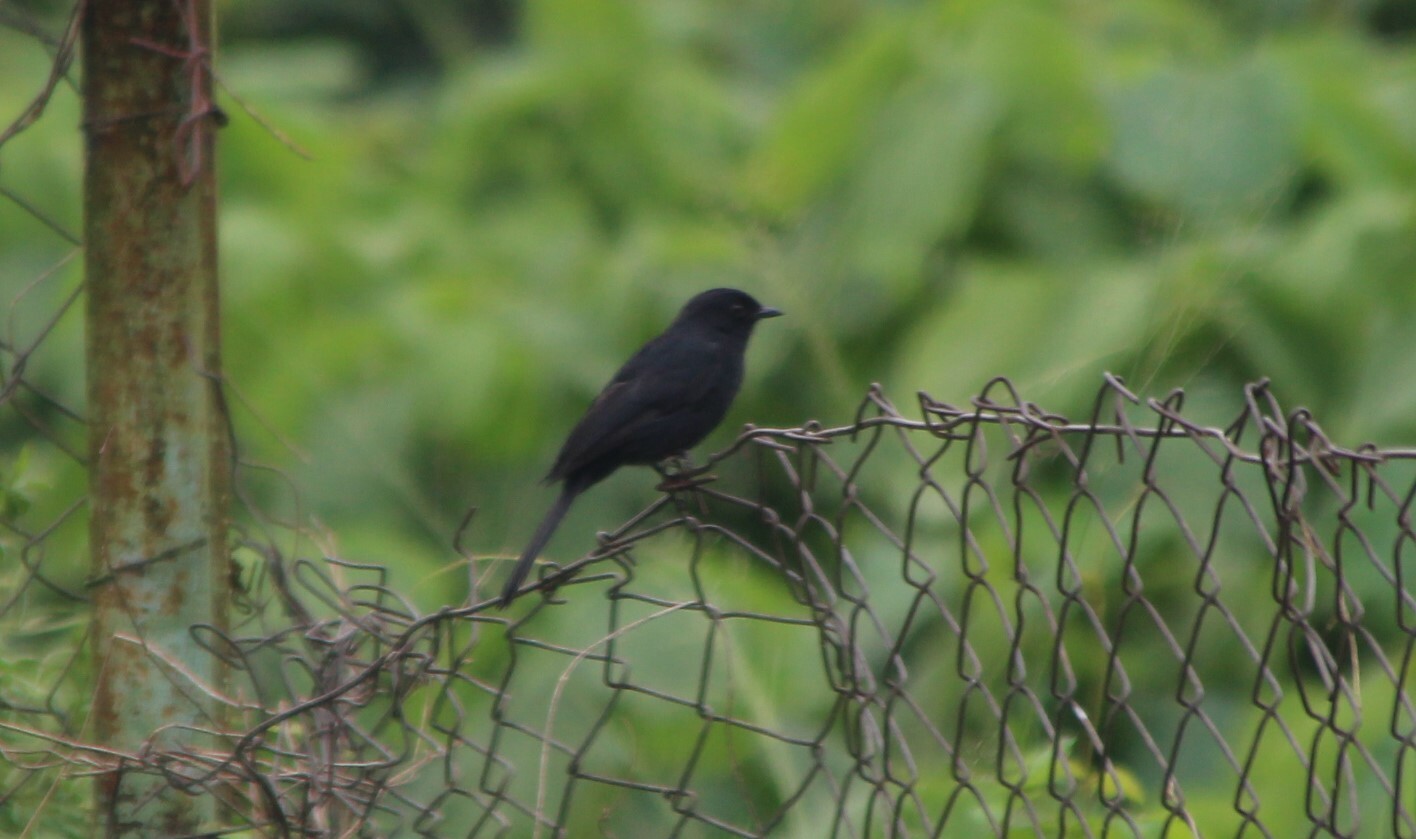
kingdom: Animalia
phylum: Chordata
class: Aves
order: Passeriformes
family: Muscicapidae
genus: Melaenornis
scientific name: Melaenornis edolioides
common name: Northern black flycatcher
